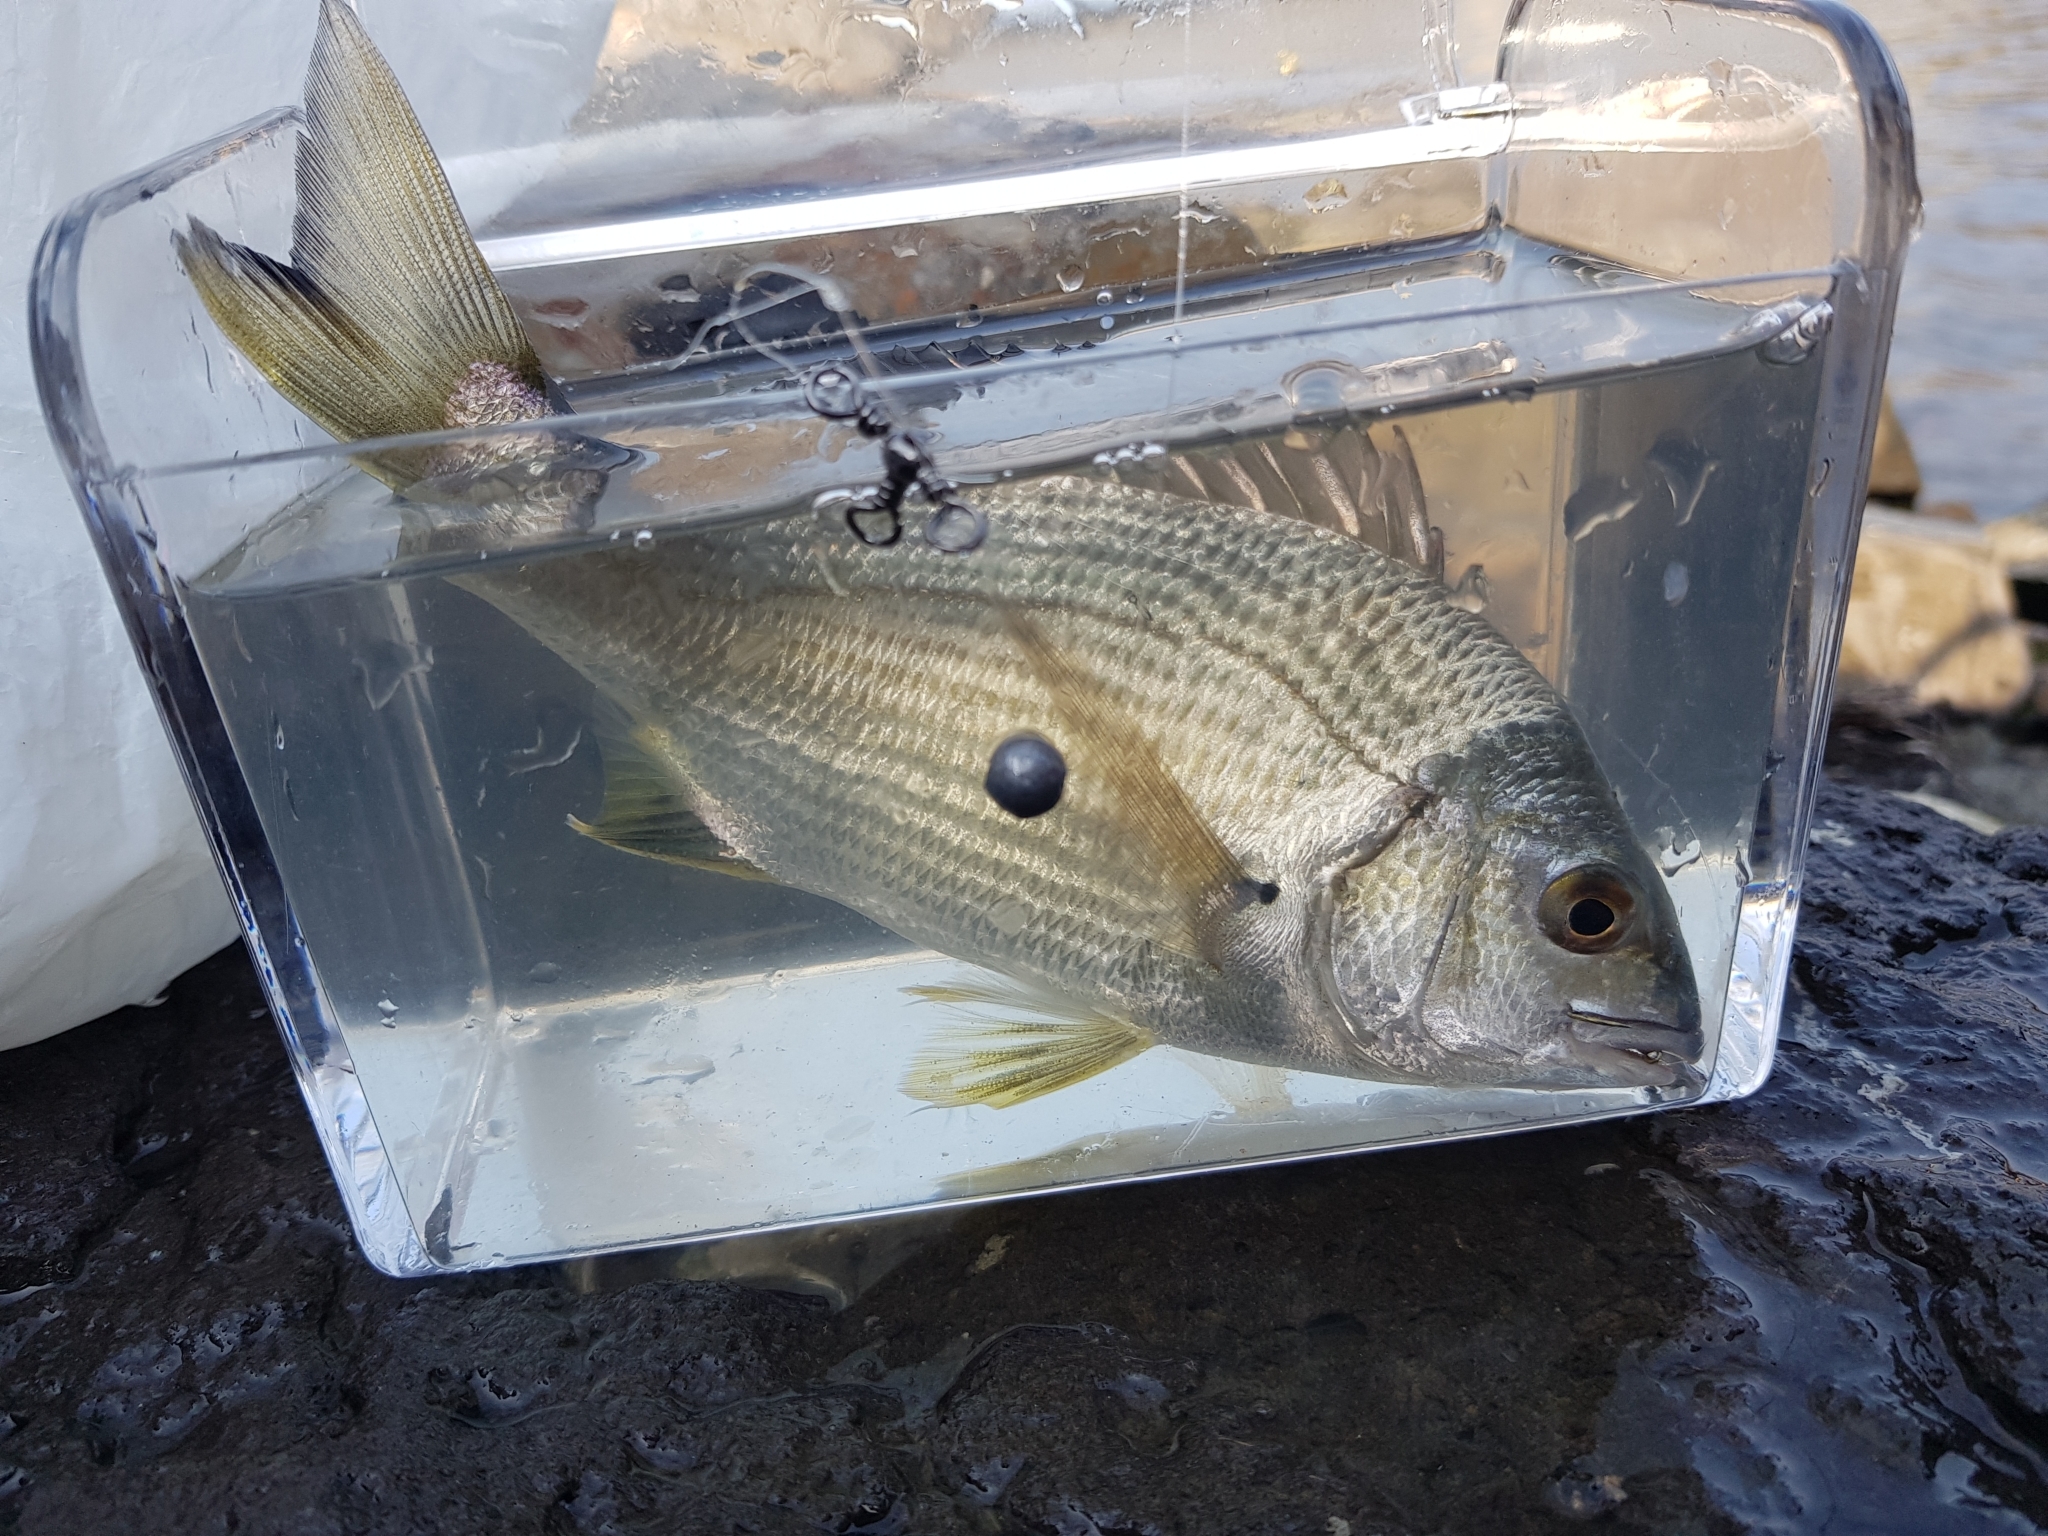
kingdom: Animalia
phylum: Chordata
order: Perciformes
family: Sparidae
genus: Acanthopagrus
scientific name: Acanthopagrus butcheri
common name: Black bream
